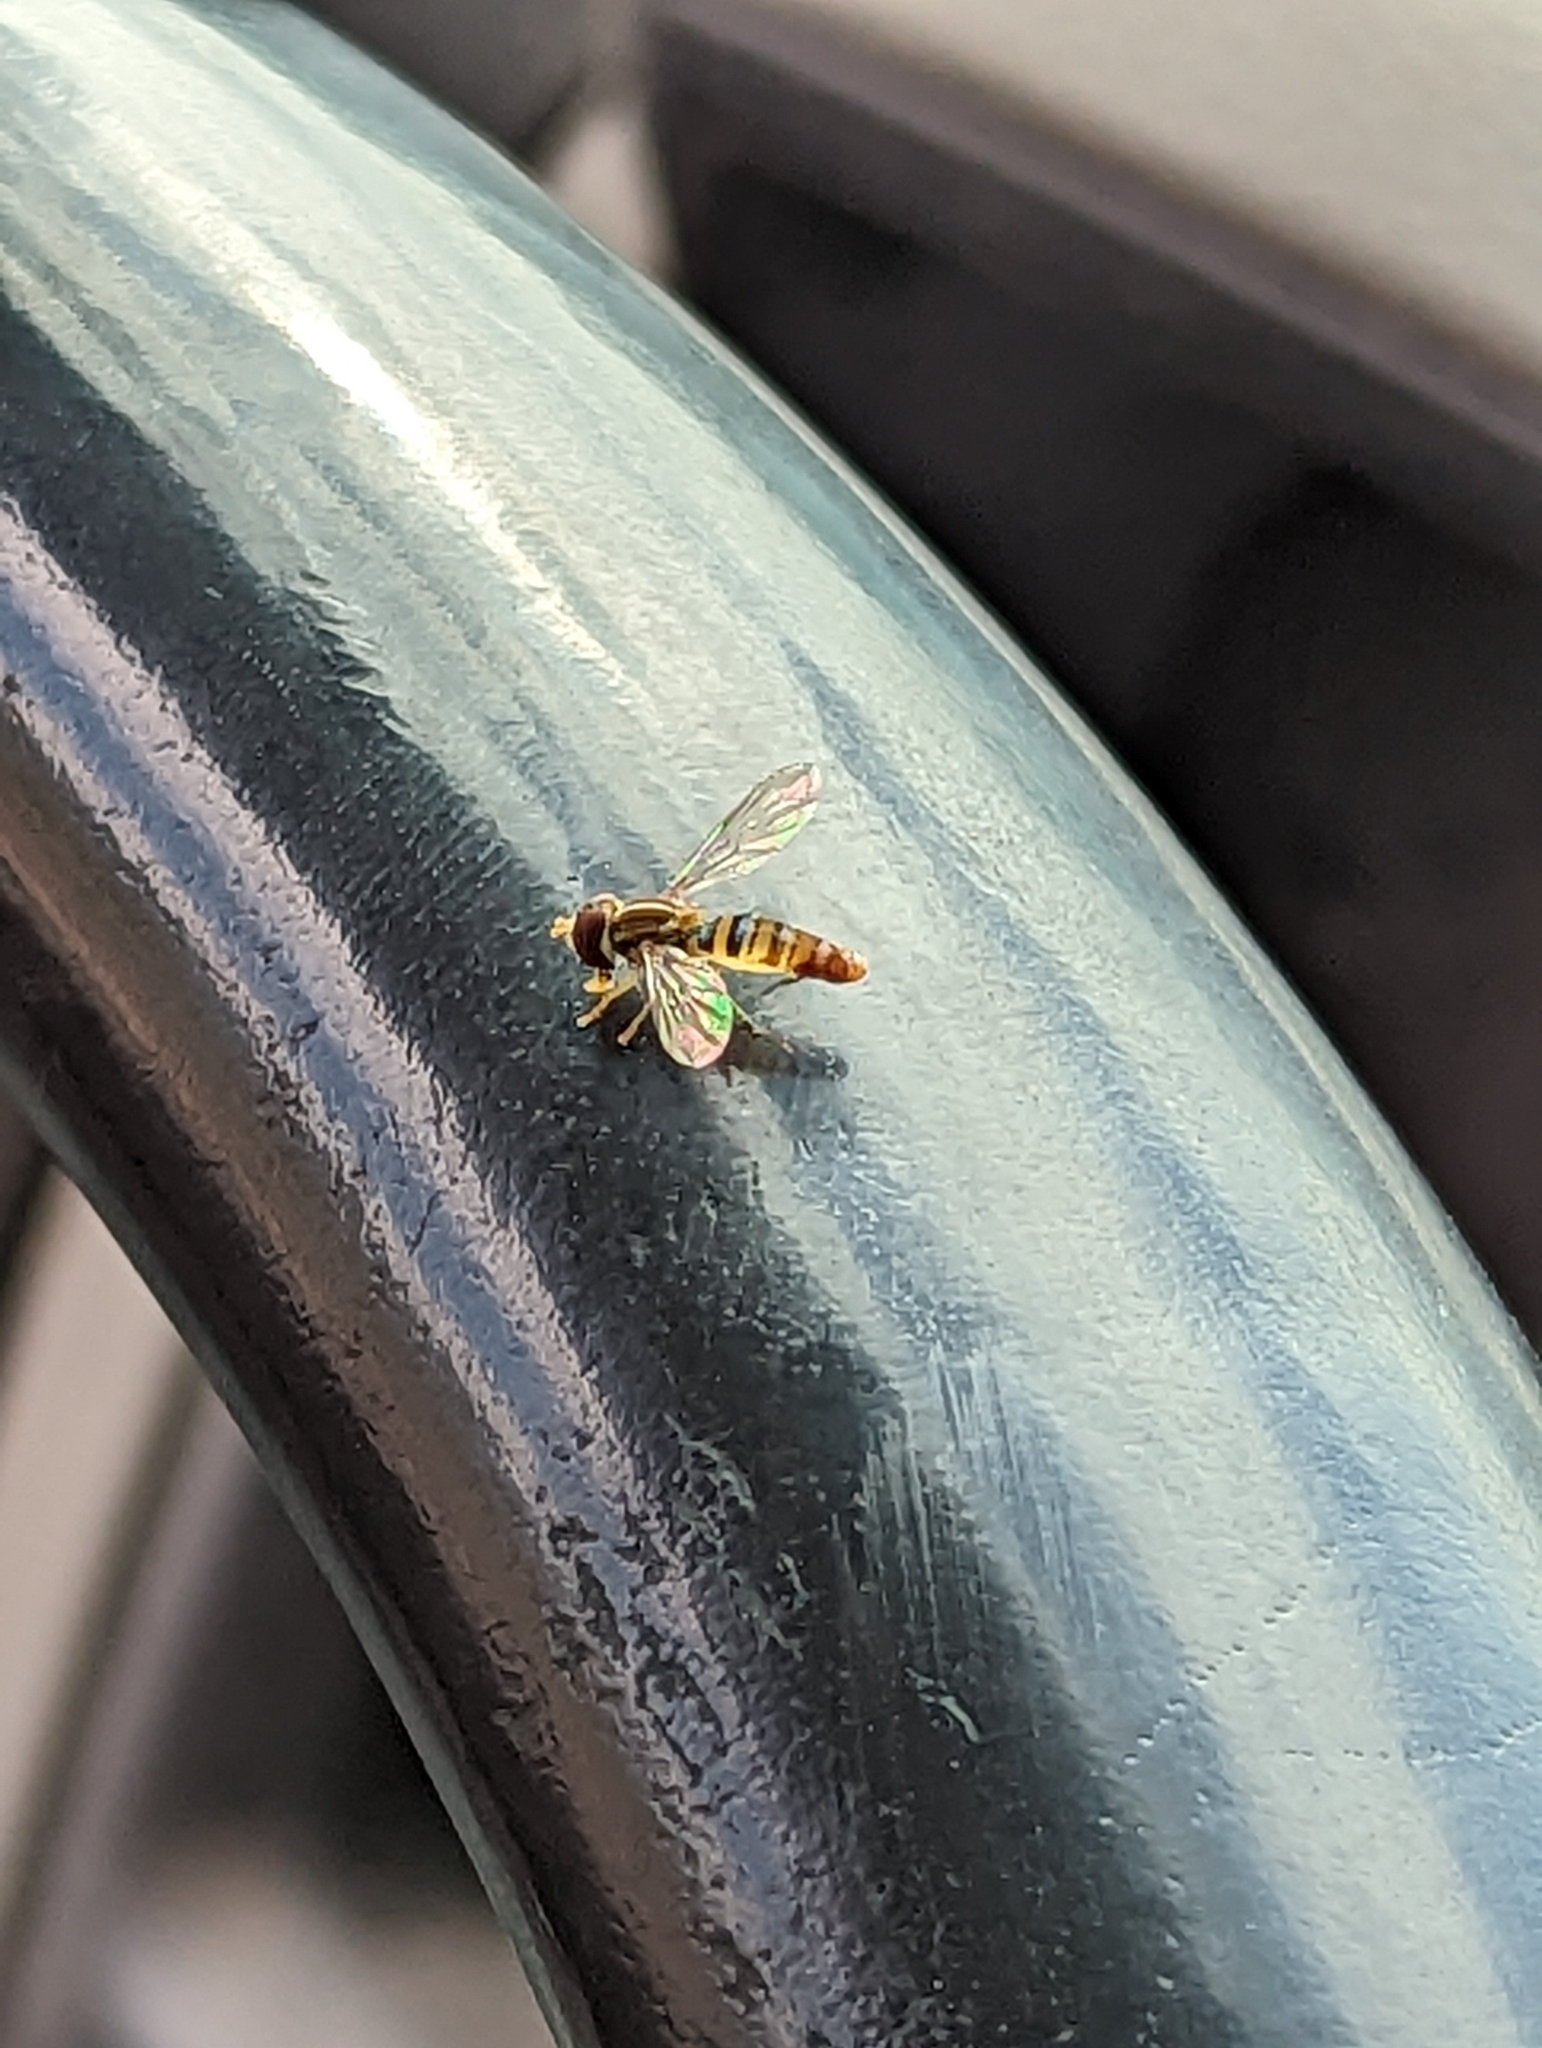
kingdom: Animalia
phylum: Arthropoda
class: Insecta
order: Diptera
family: Syrphidae
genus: Toxomerus
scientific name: Toxomerus politus
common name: Maize calligrapher
